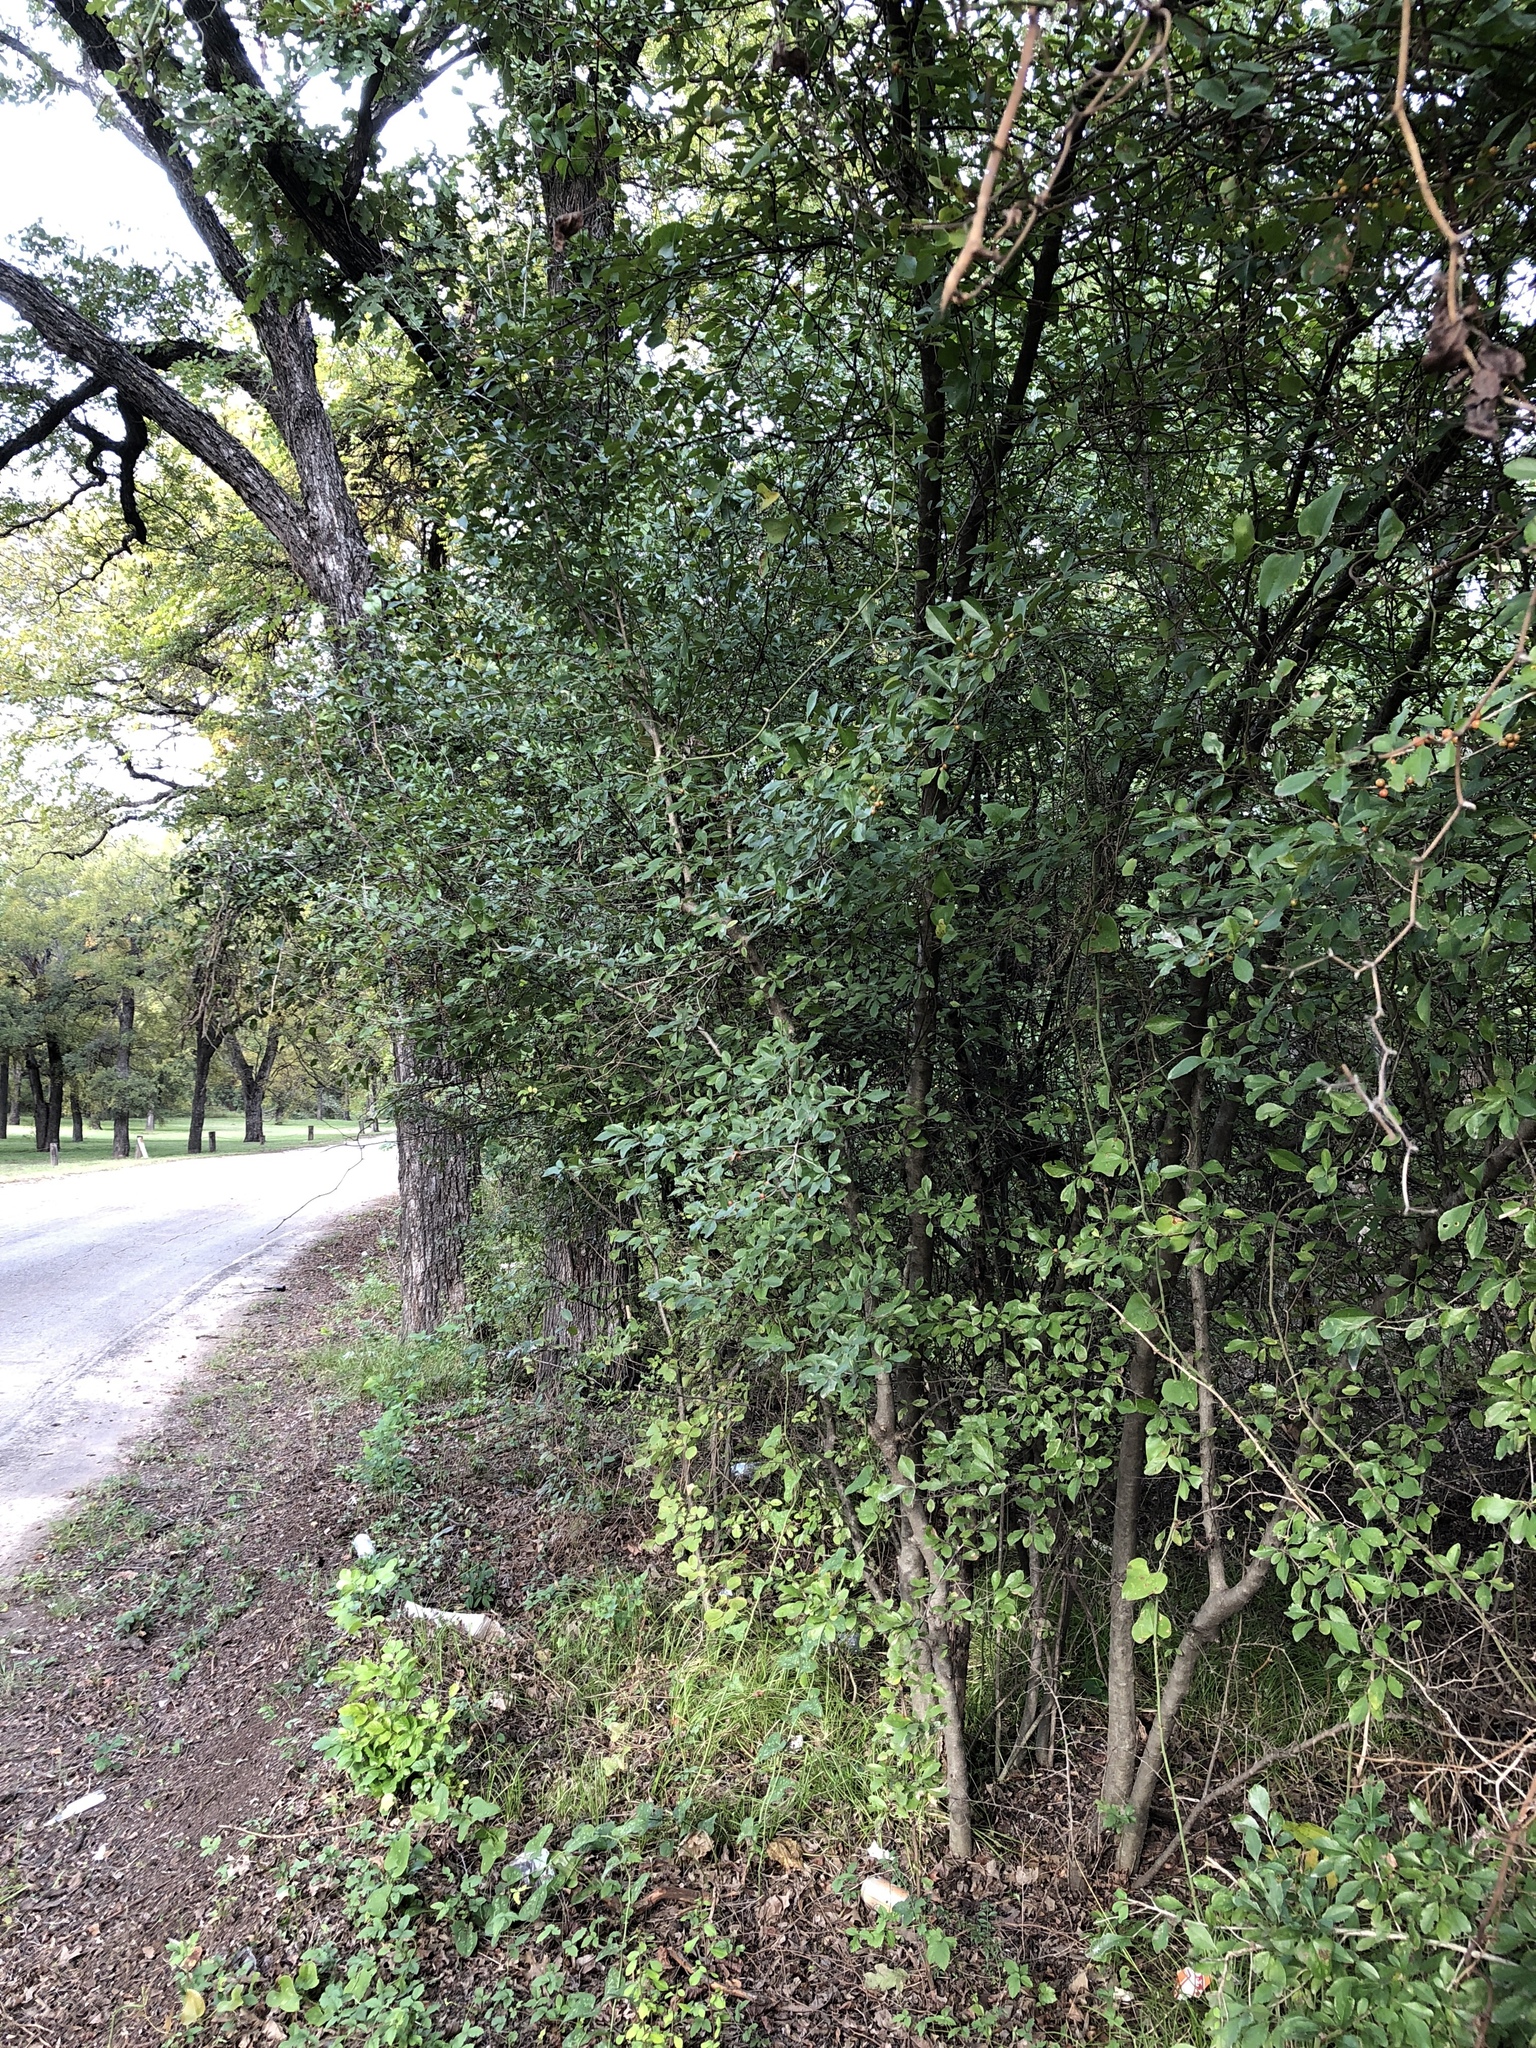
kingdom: Plantae
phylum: Tracheophyta
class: Magnoliopsida
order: Aquifoliales
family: Aquifoliaceae
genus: Ilex
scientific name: Ilex decidua
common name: Possum-haw
